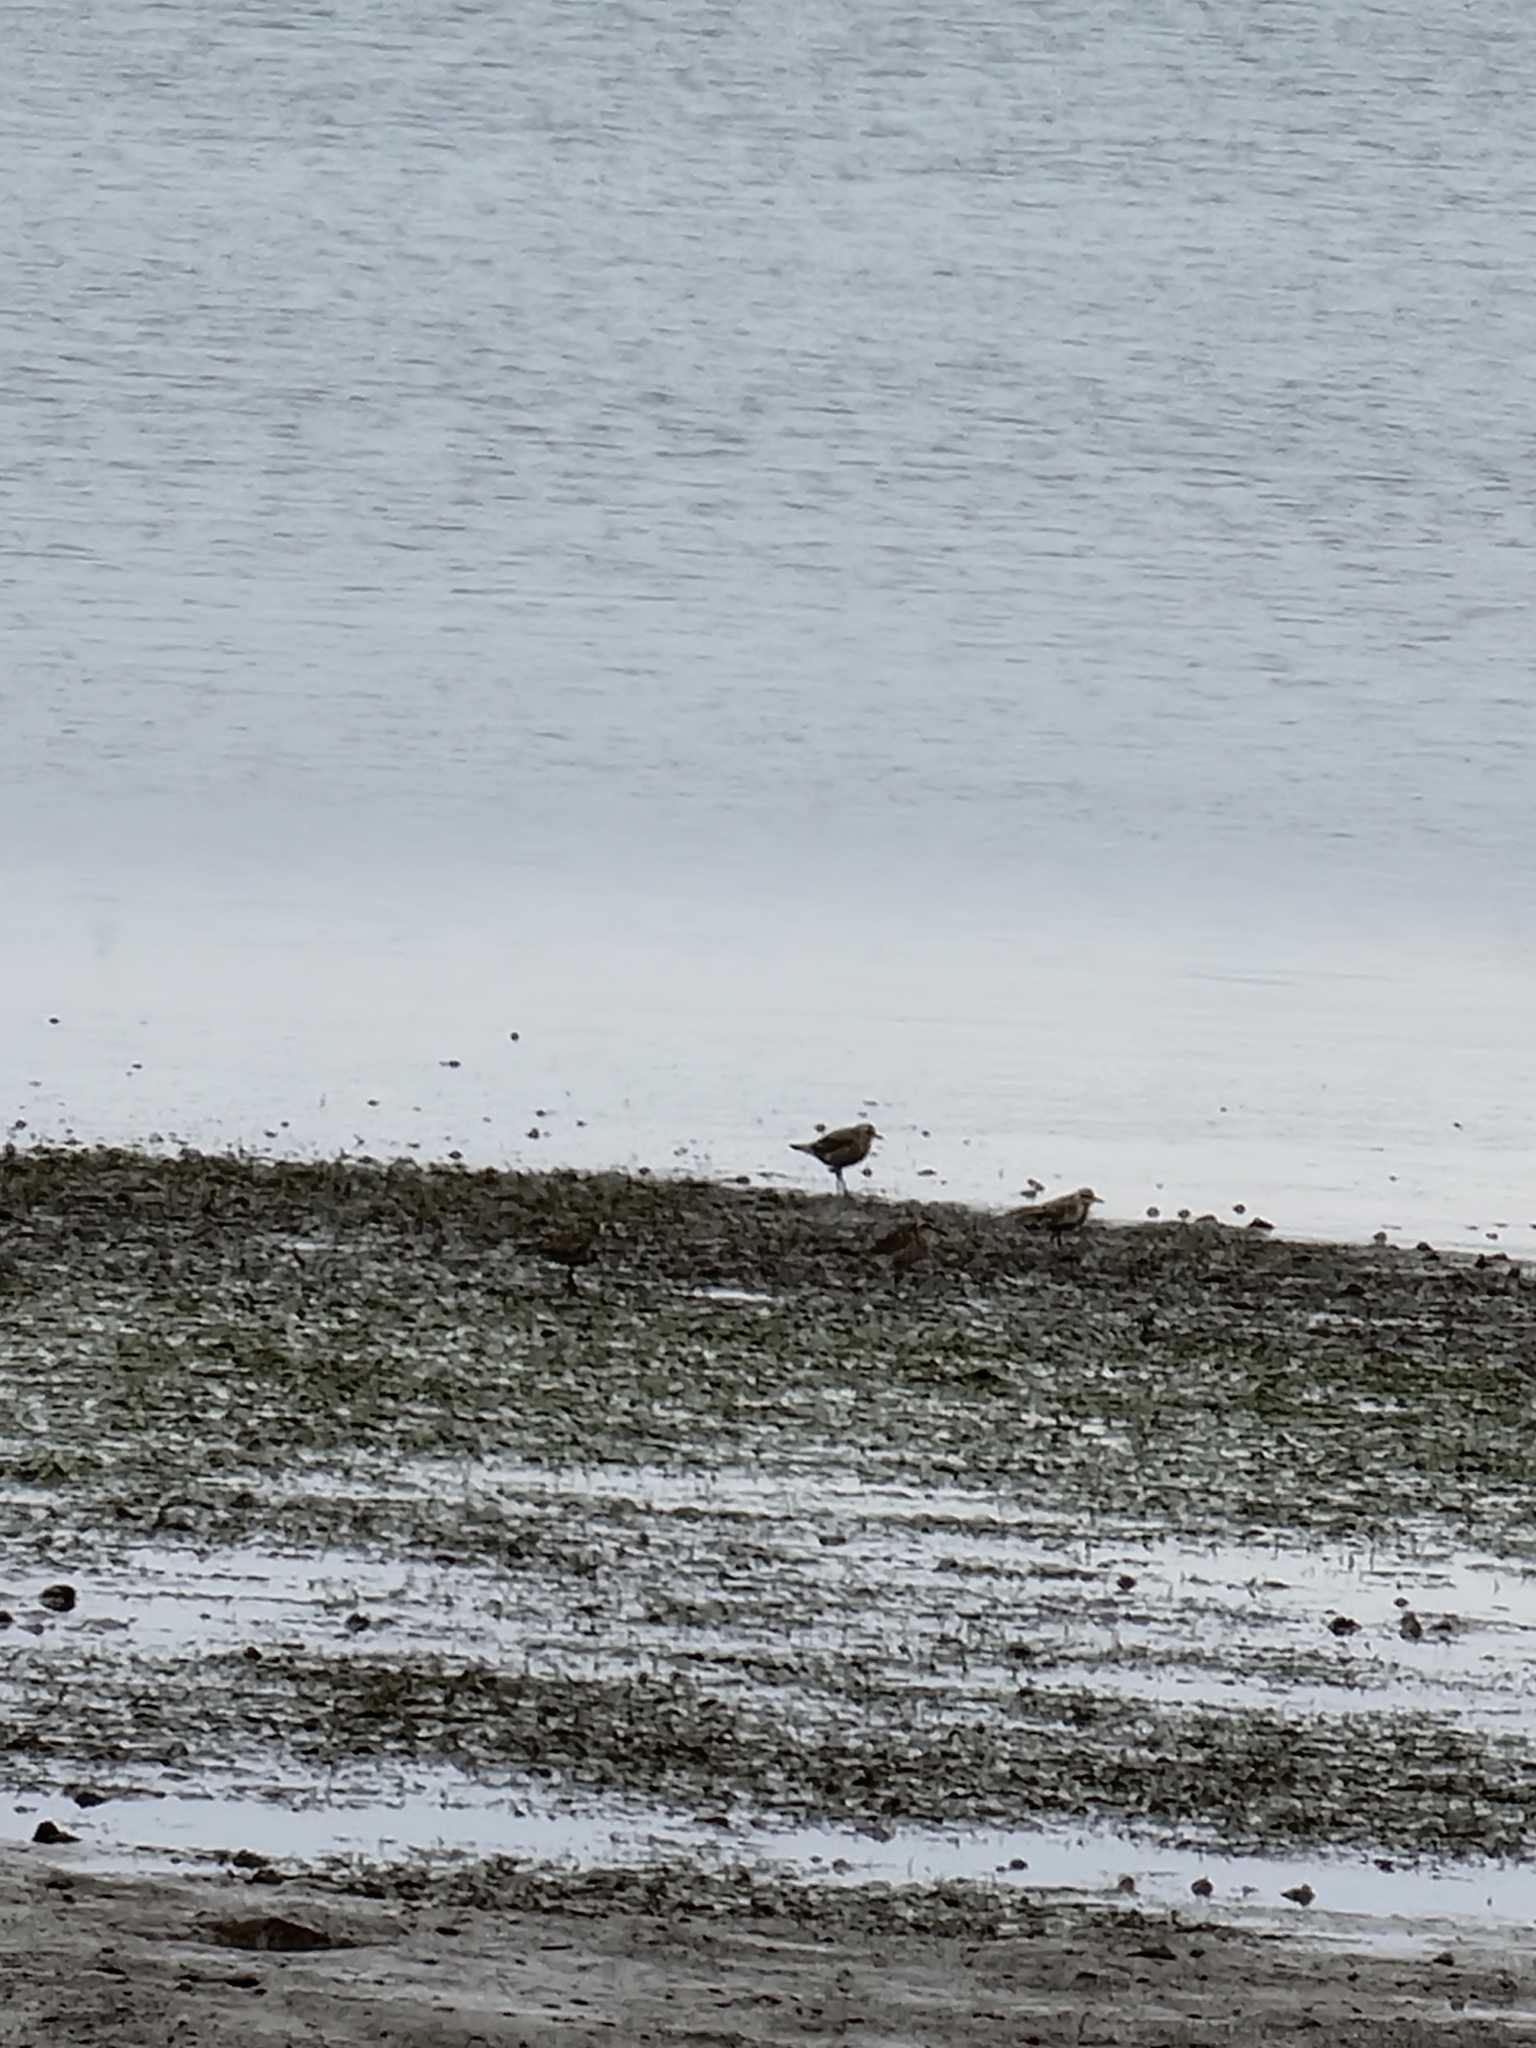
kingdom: Animalia
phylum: Chordata
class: Aves
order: Charadriiformes
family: Charadriidae
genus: Pluvialis
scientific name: Pluvialis fulva
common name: Pacific golden plover
